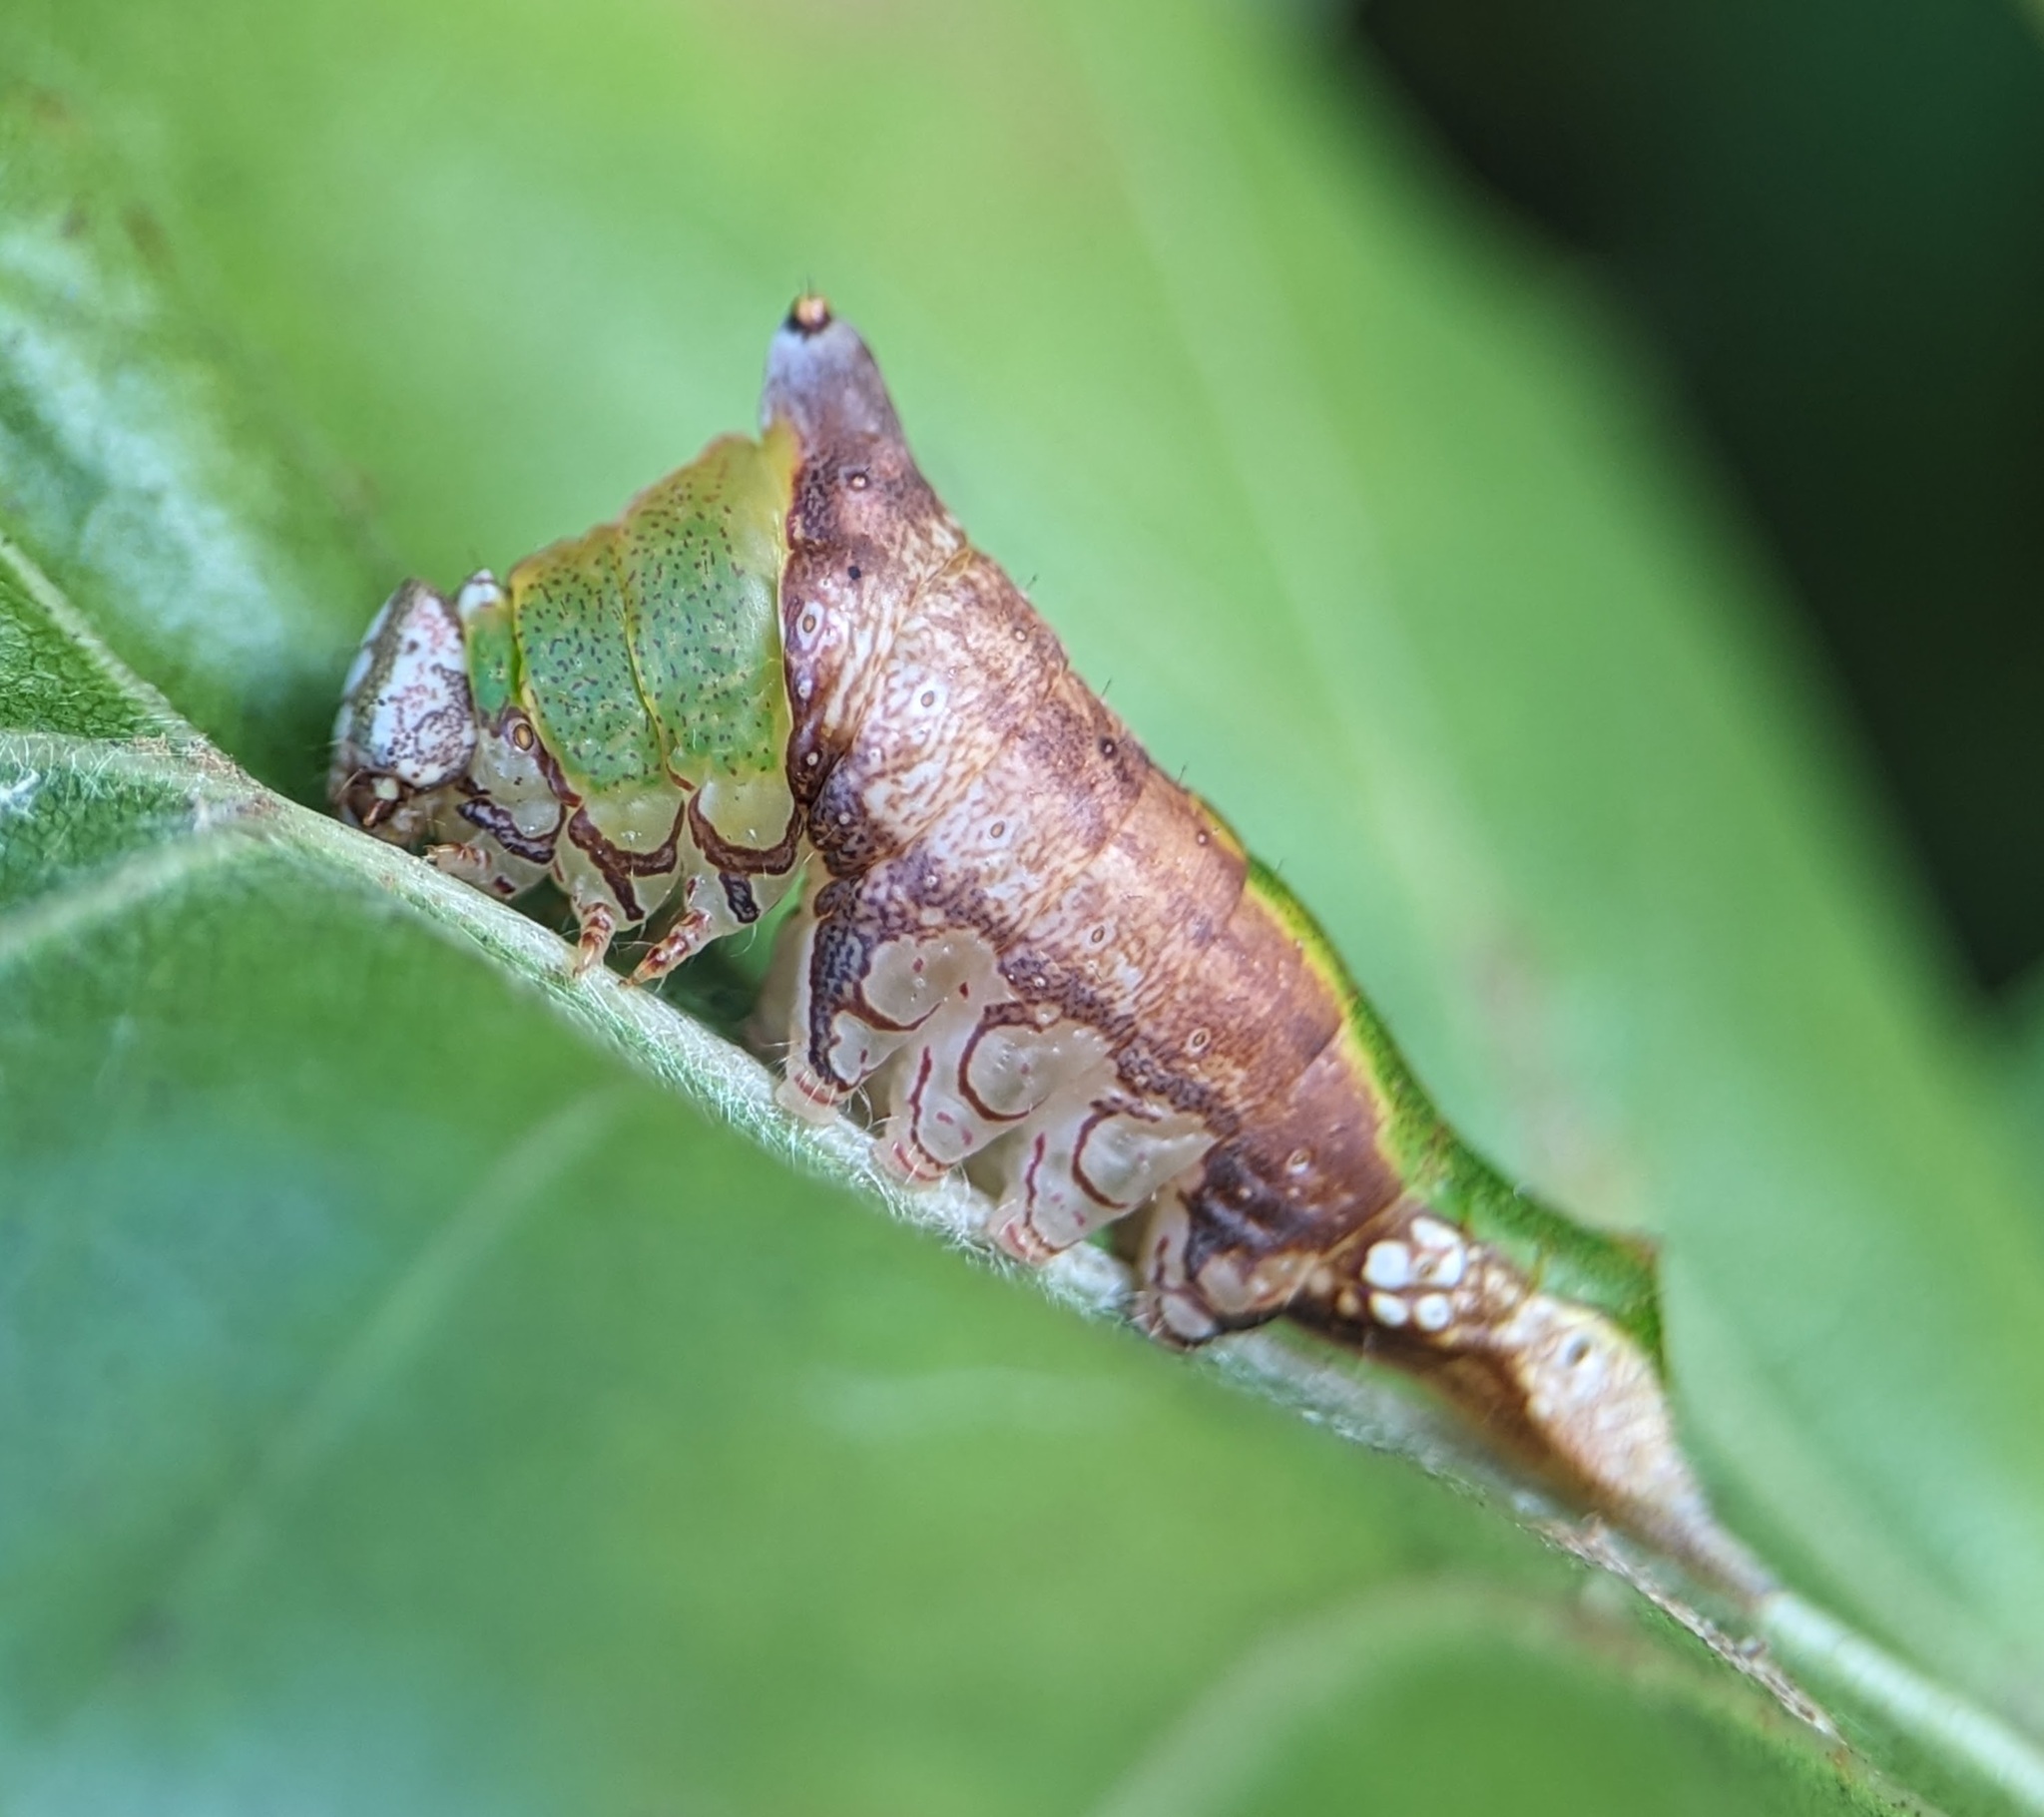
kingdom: Animalia
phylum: Arthropoda
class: Insecta
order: Lepidoptera
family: Notodontidae
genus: Oligocentria
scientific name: Oligocentria Ianassa lignicolor
